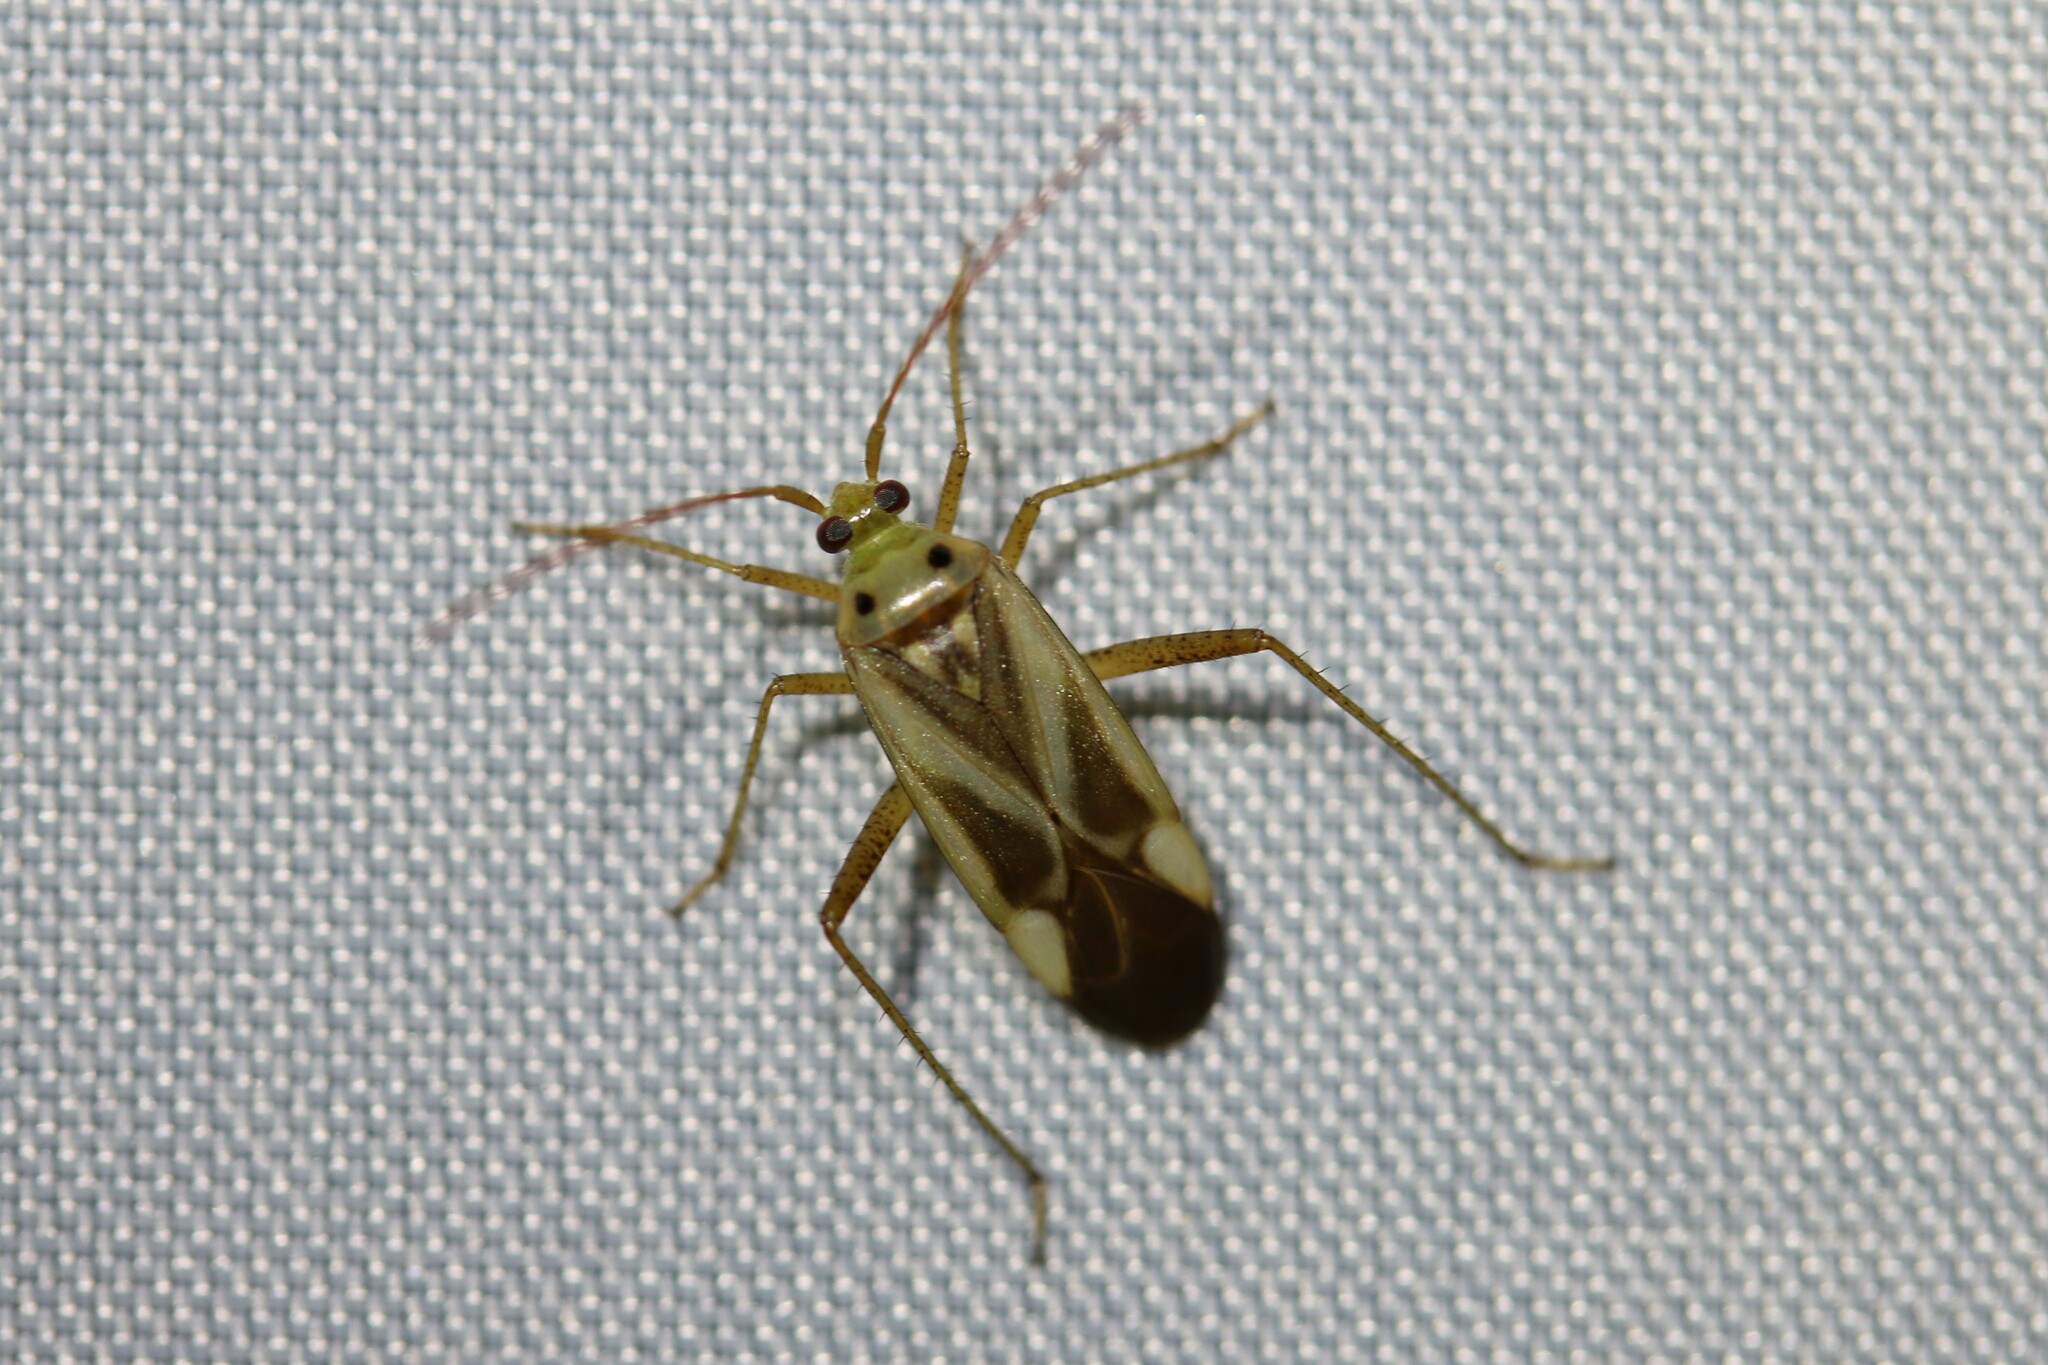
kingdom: Animalia
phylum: Arthropoda
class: Insecta
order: Hemiptera
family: Miridae
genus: Adelphocoris
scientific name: Adelphocoris lineolatus
